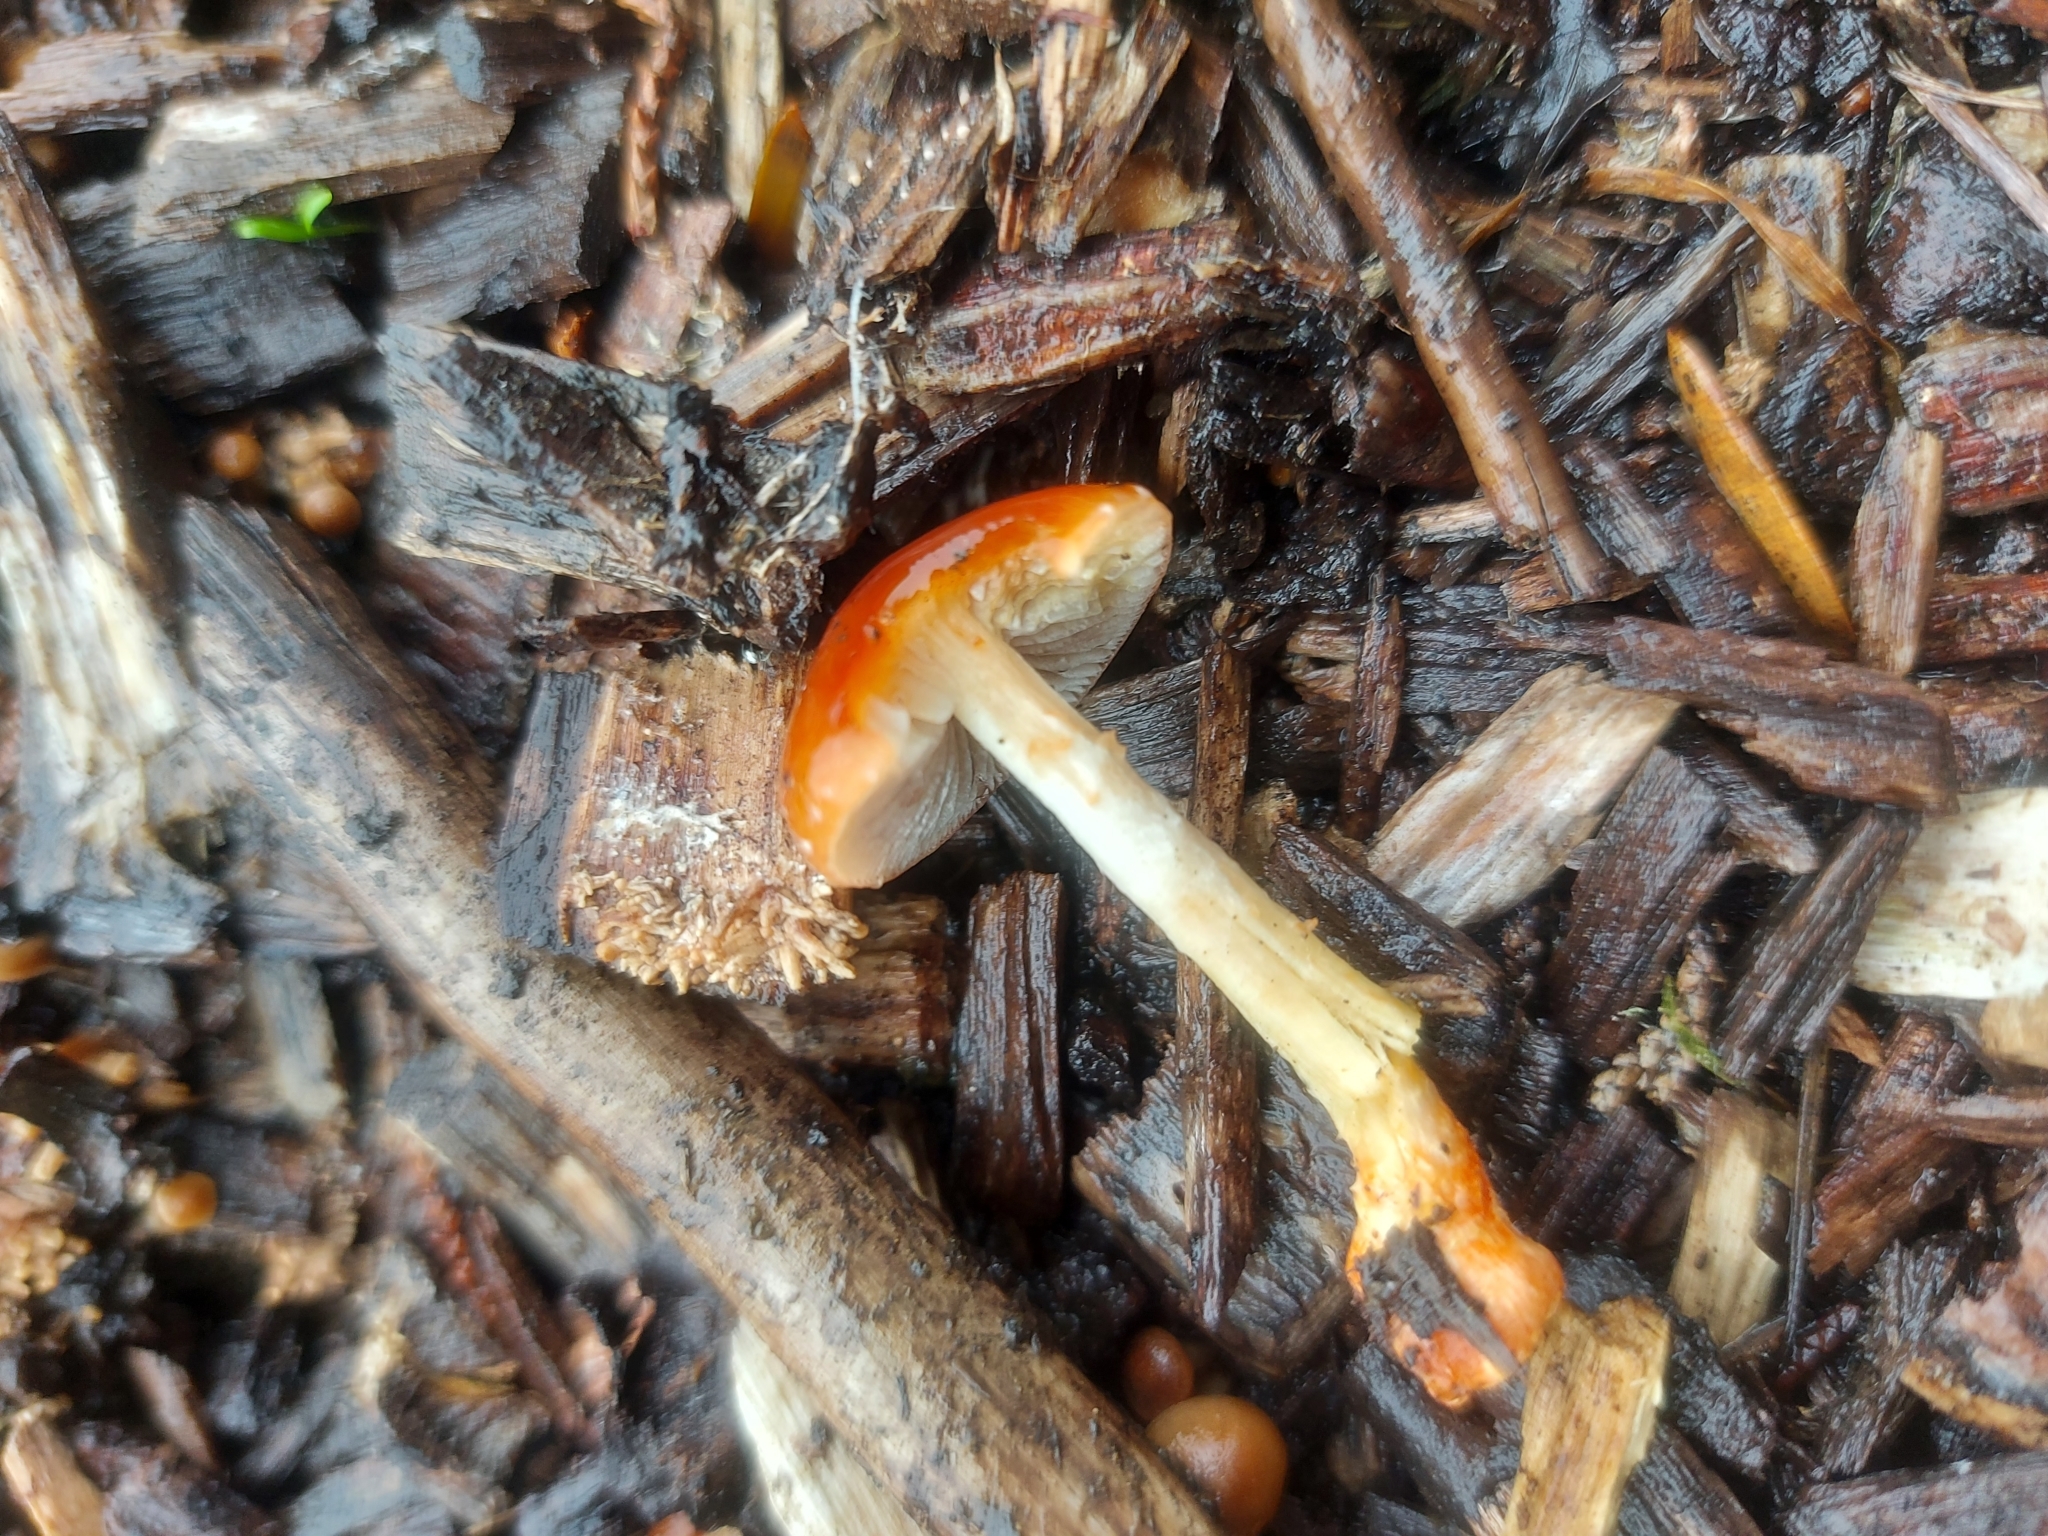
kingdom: Fungi
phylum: Basidiomycota
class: Agaricomycetes
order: Agaricales
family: Strophariaceae
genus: Leratiomyces
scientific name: Leratiomyces ceres
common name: Redlead roundhead
